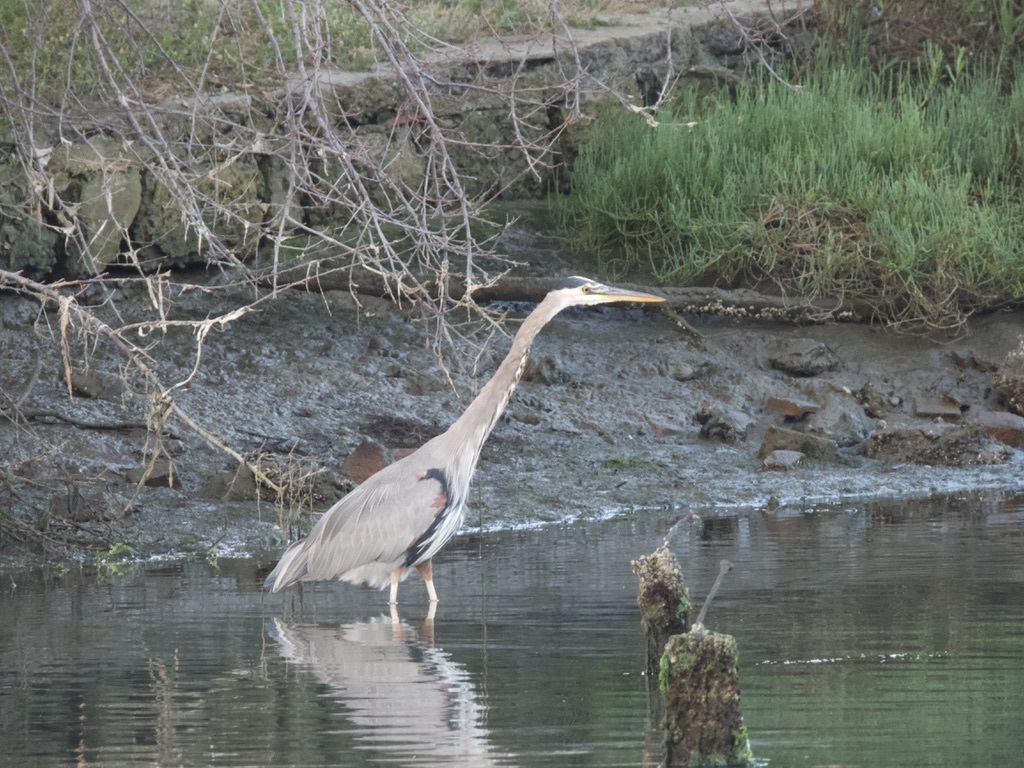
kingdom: Animalia
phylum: Chordata
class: Aves
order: Pelecaniformes
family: Ardeidae
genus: Ardea
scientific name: Ardea herodias
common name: Great blue heron
